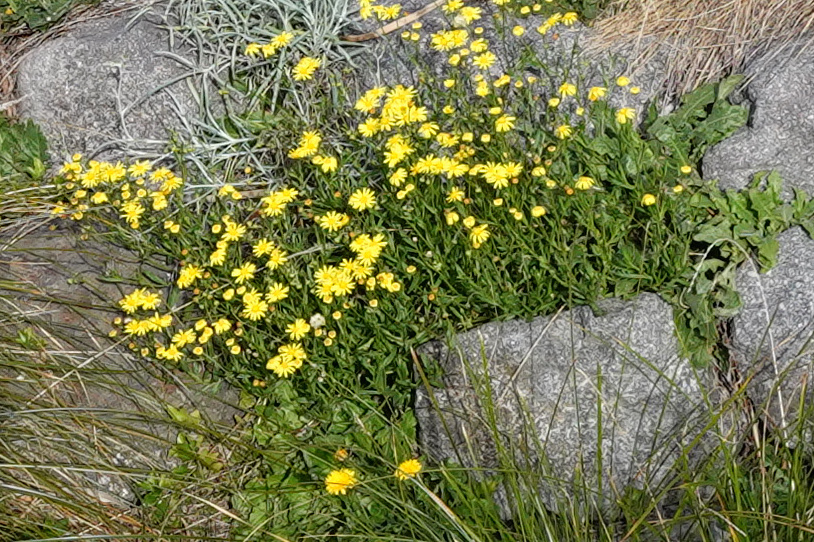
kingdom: Plantae
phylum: Tracheophyta
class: Magnoliopsida
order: Asterales
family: Asteraceae
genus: Senecio
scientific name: Senecio skirrhodon
